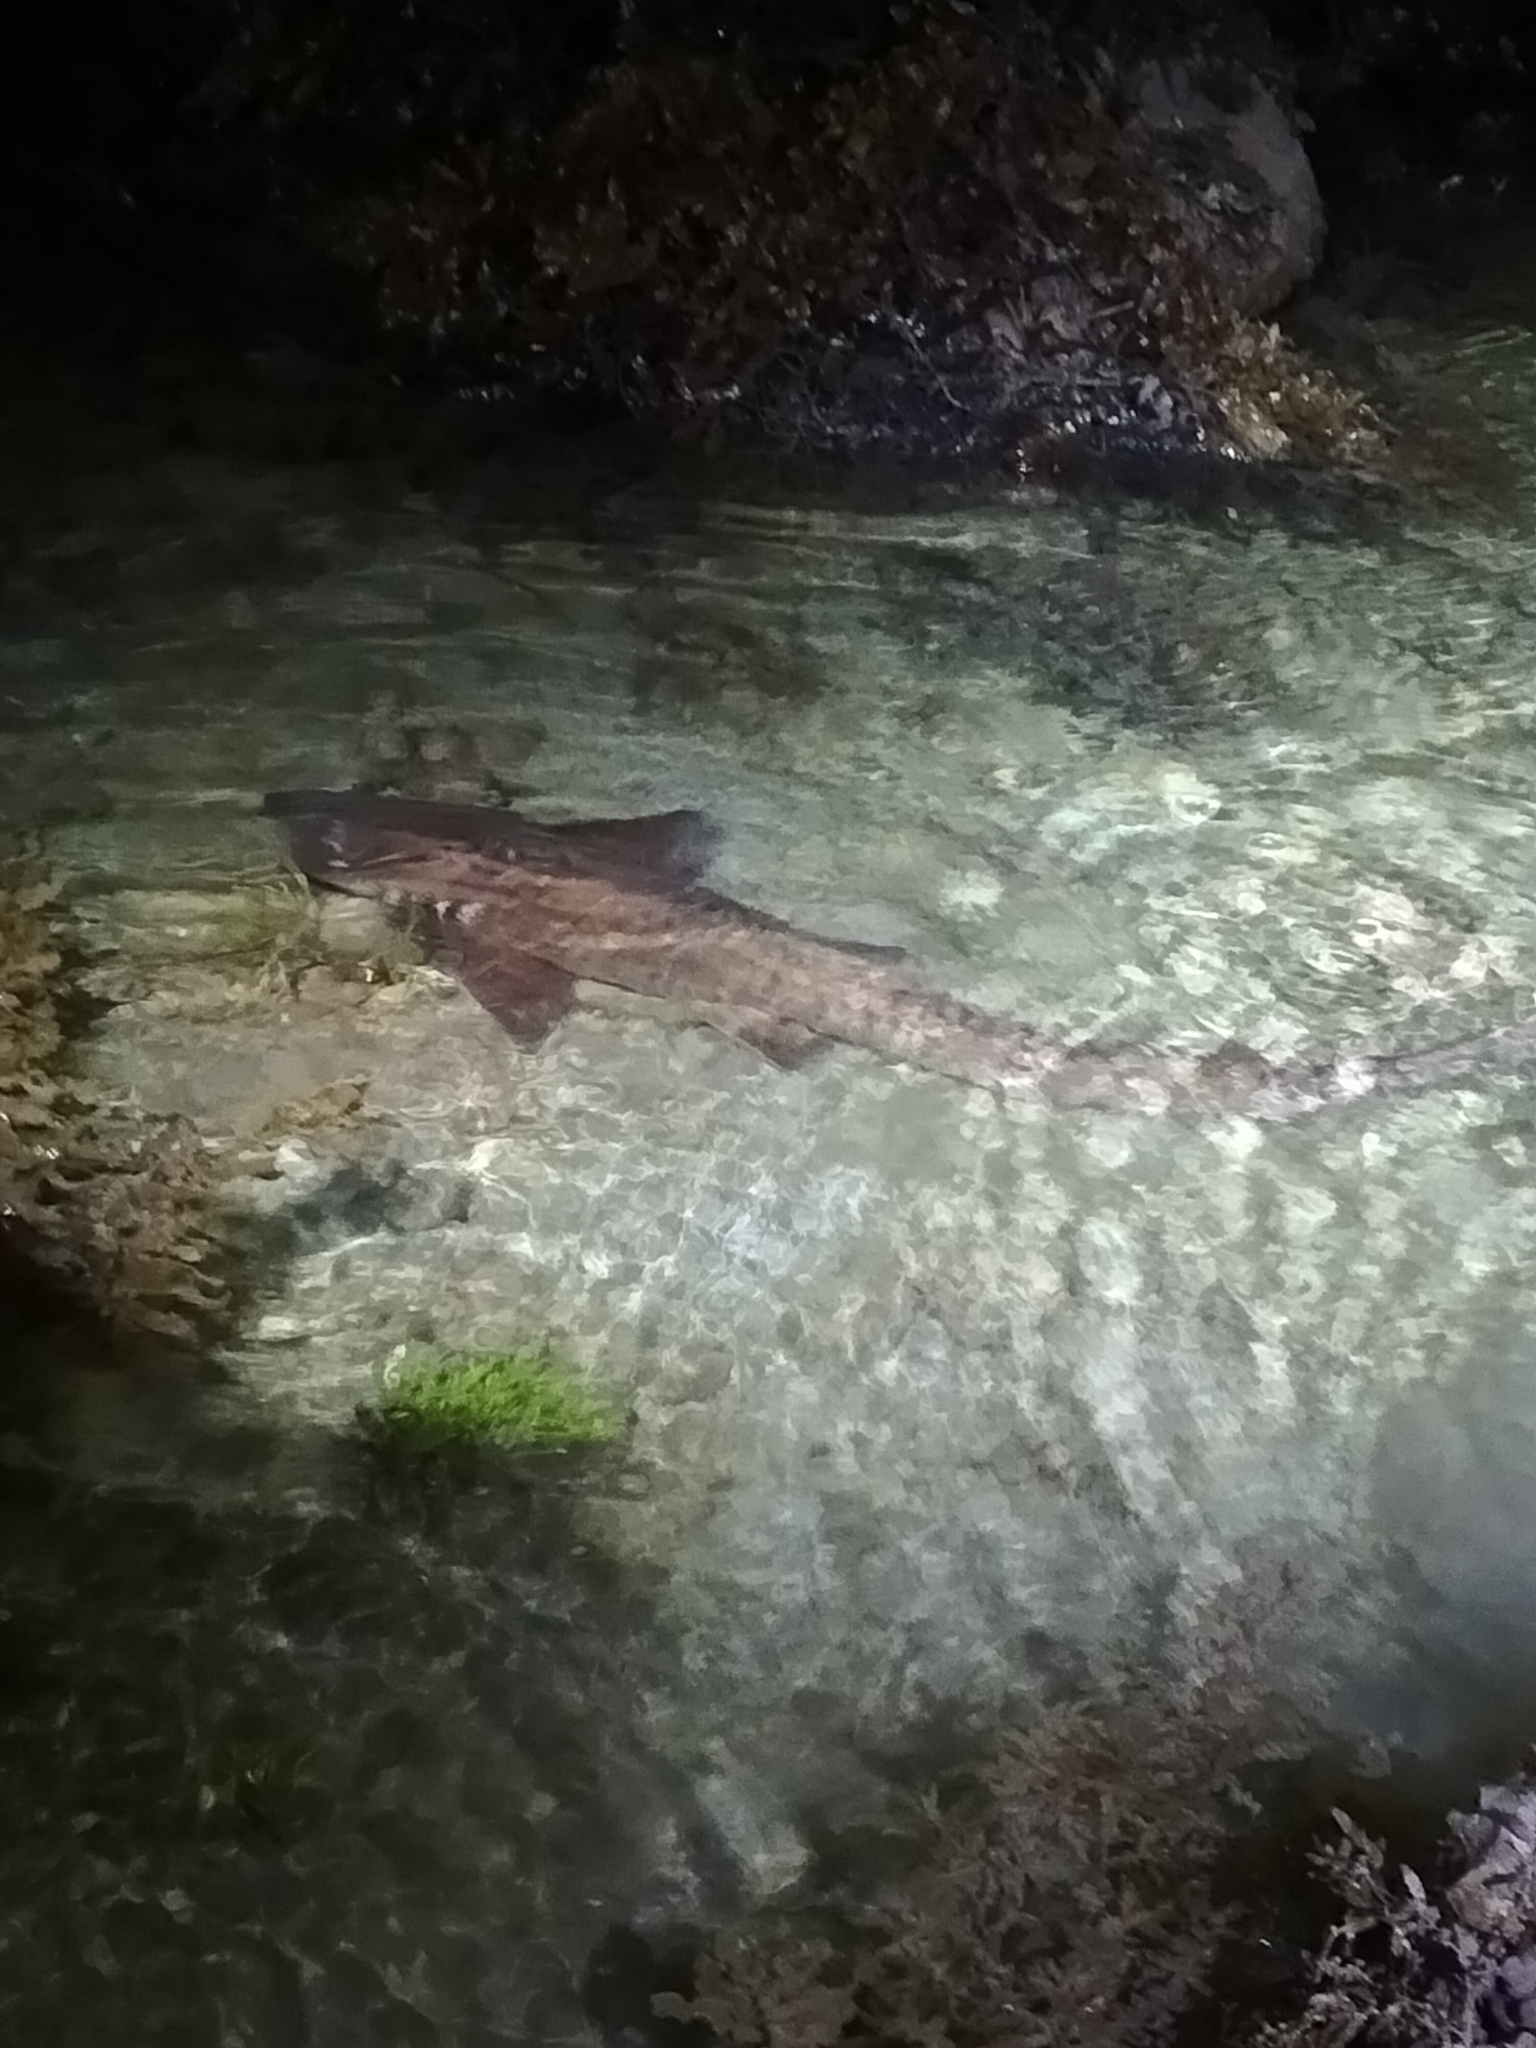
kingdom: Animalia
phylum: Chordata
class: Elasmobranchii
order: Orectolobiformes
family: Hemiscylliidae
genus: Chiloscyllium
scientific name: Chiloscyllium punctatum
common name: Brown-banded catshark
